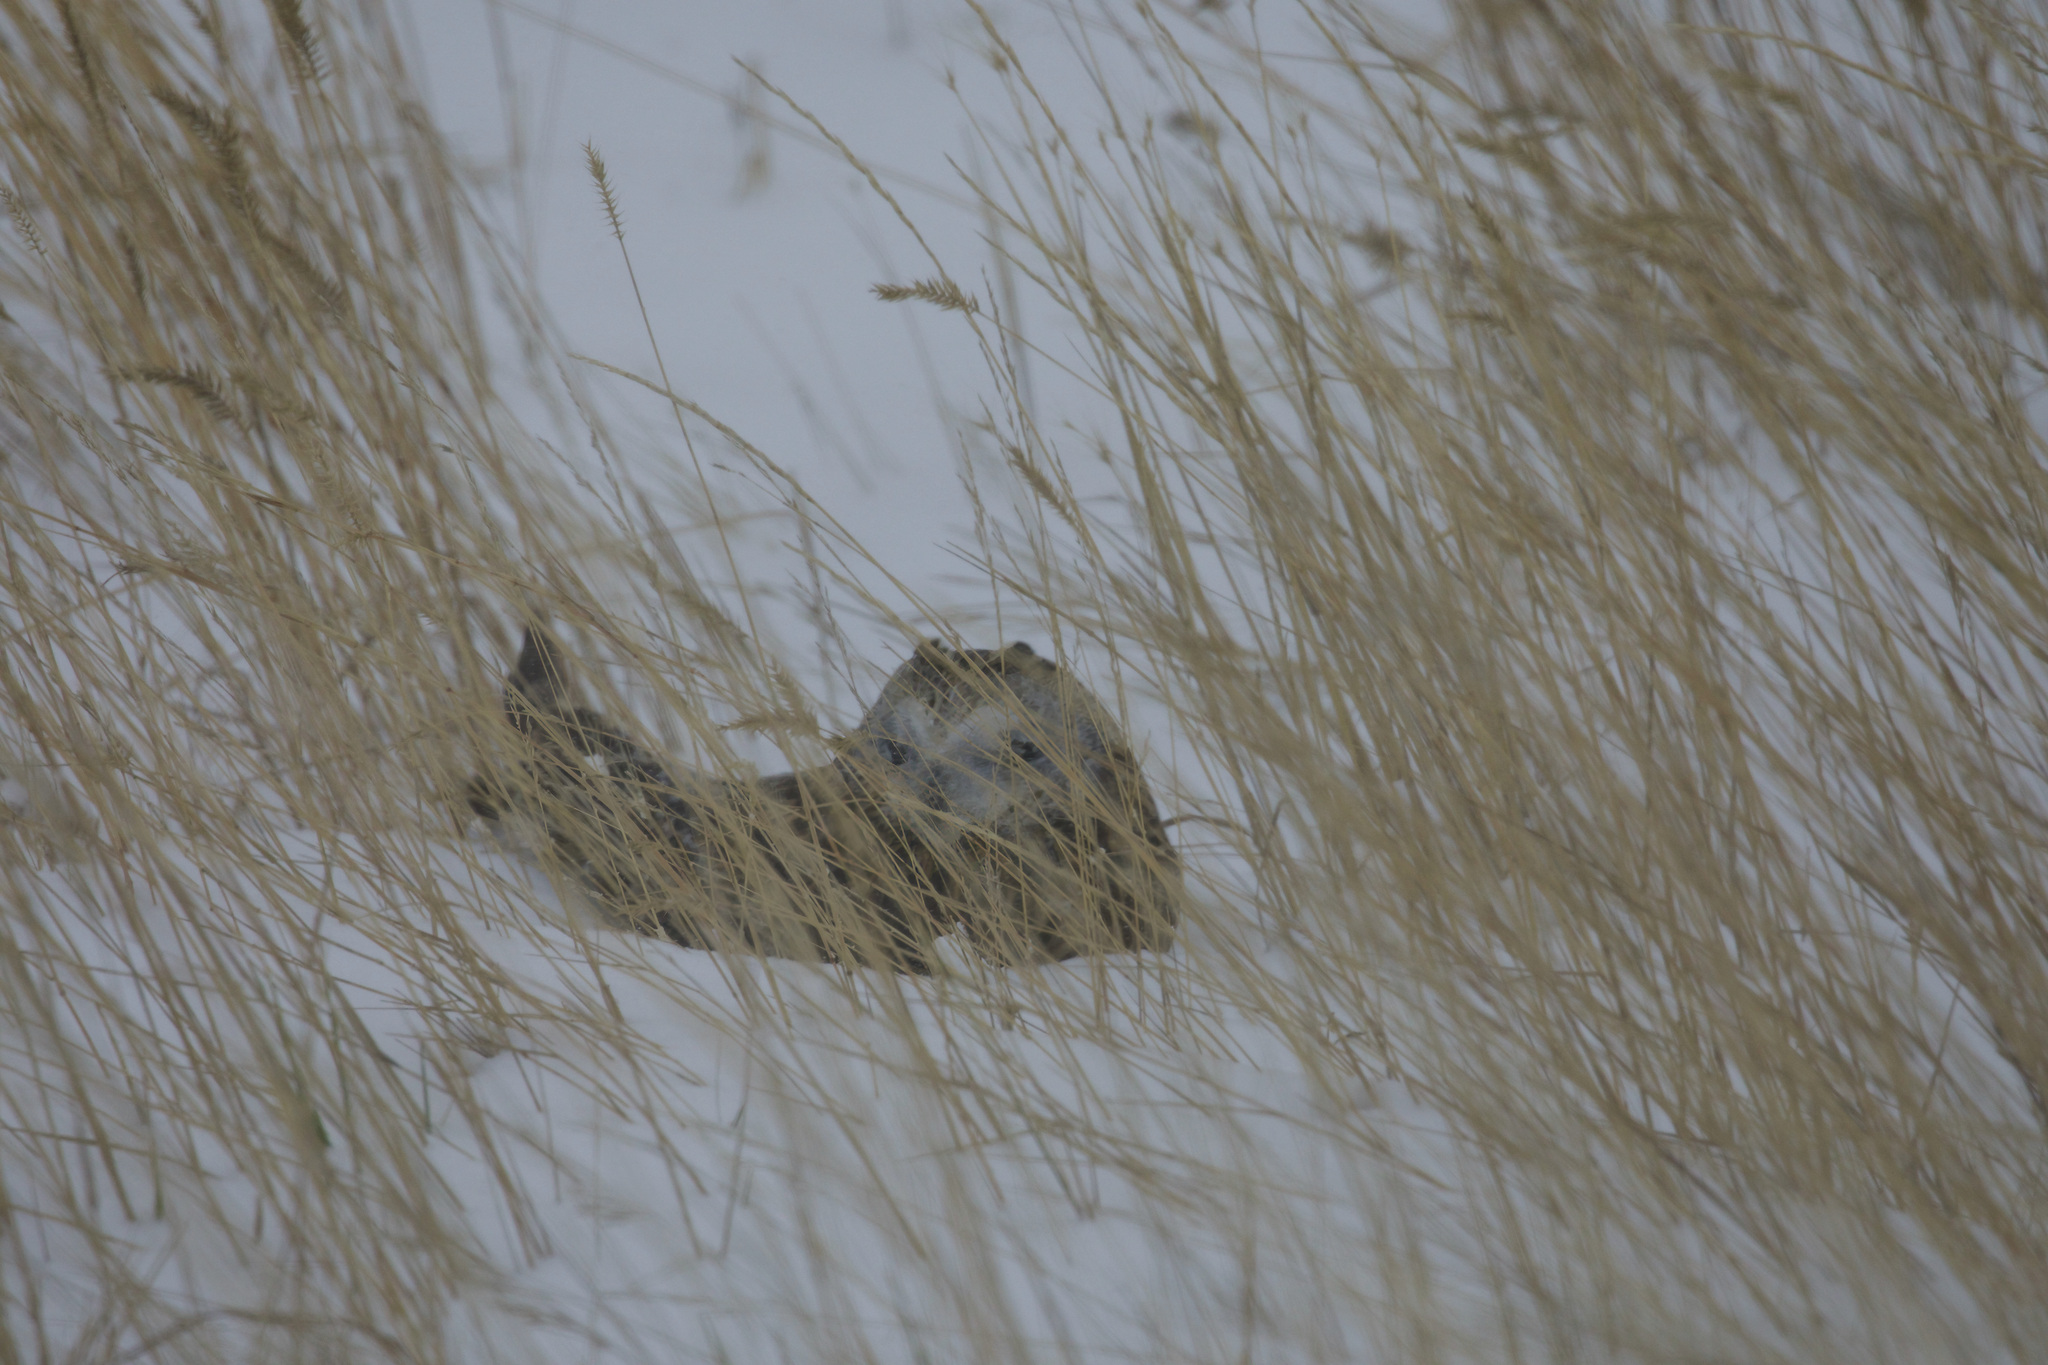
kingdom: Animalia
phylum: Chordata
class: Aves
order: Strigiformes
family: Strigidae
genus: Asio
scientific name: Asio flammeus
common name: Short-eared owl
